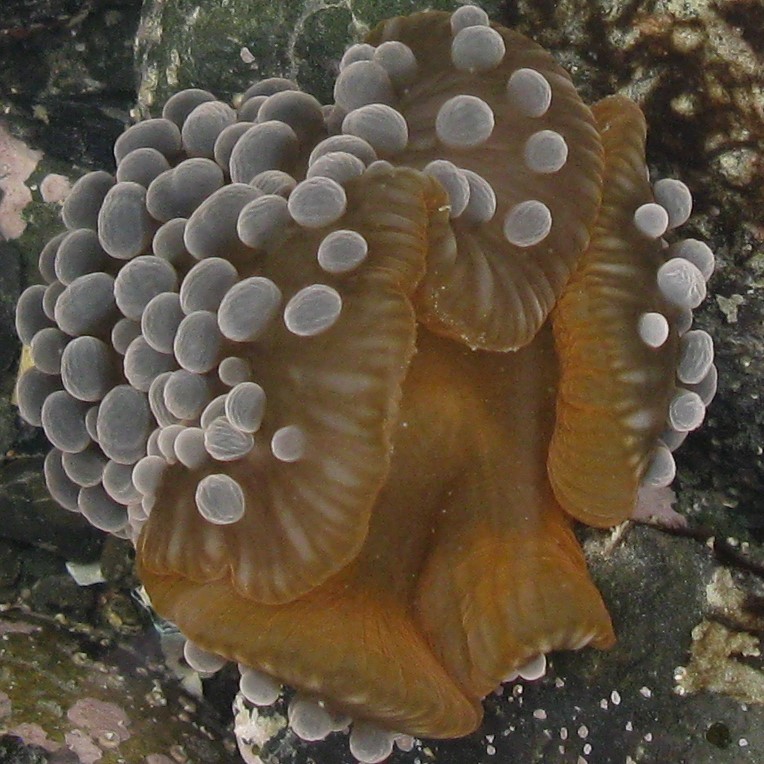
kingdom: Animalia
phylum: Cnidaria
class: Anthozoa
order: Actiniaria
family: Actiniidae
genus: Phlyctenactis
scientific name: Phlyctenactis tuberculosa
